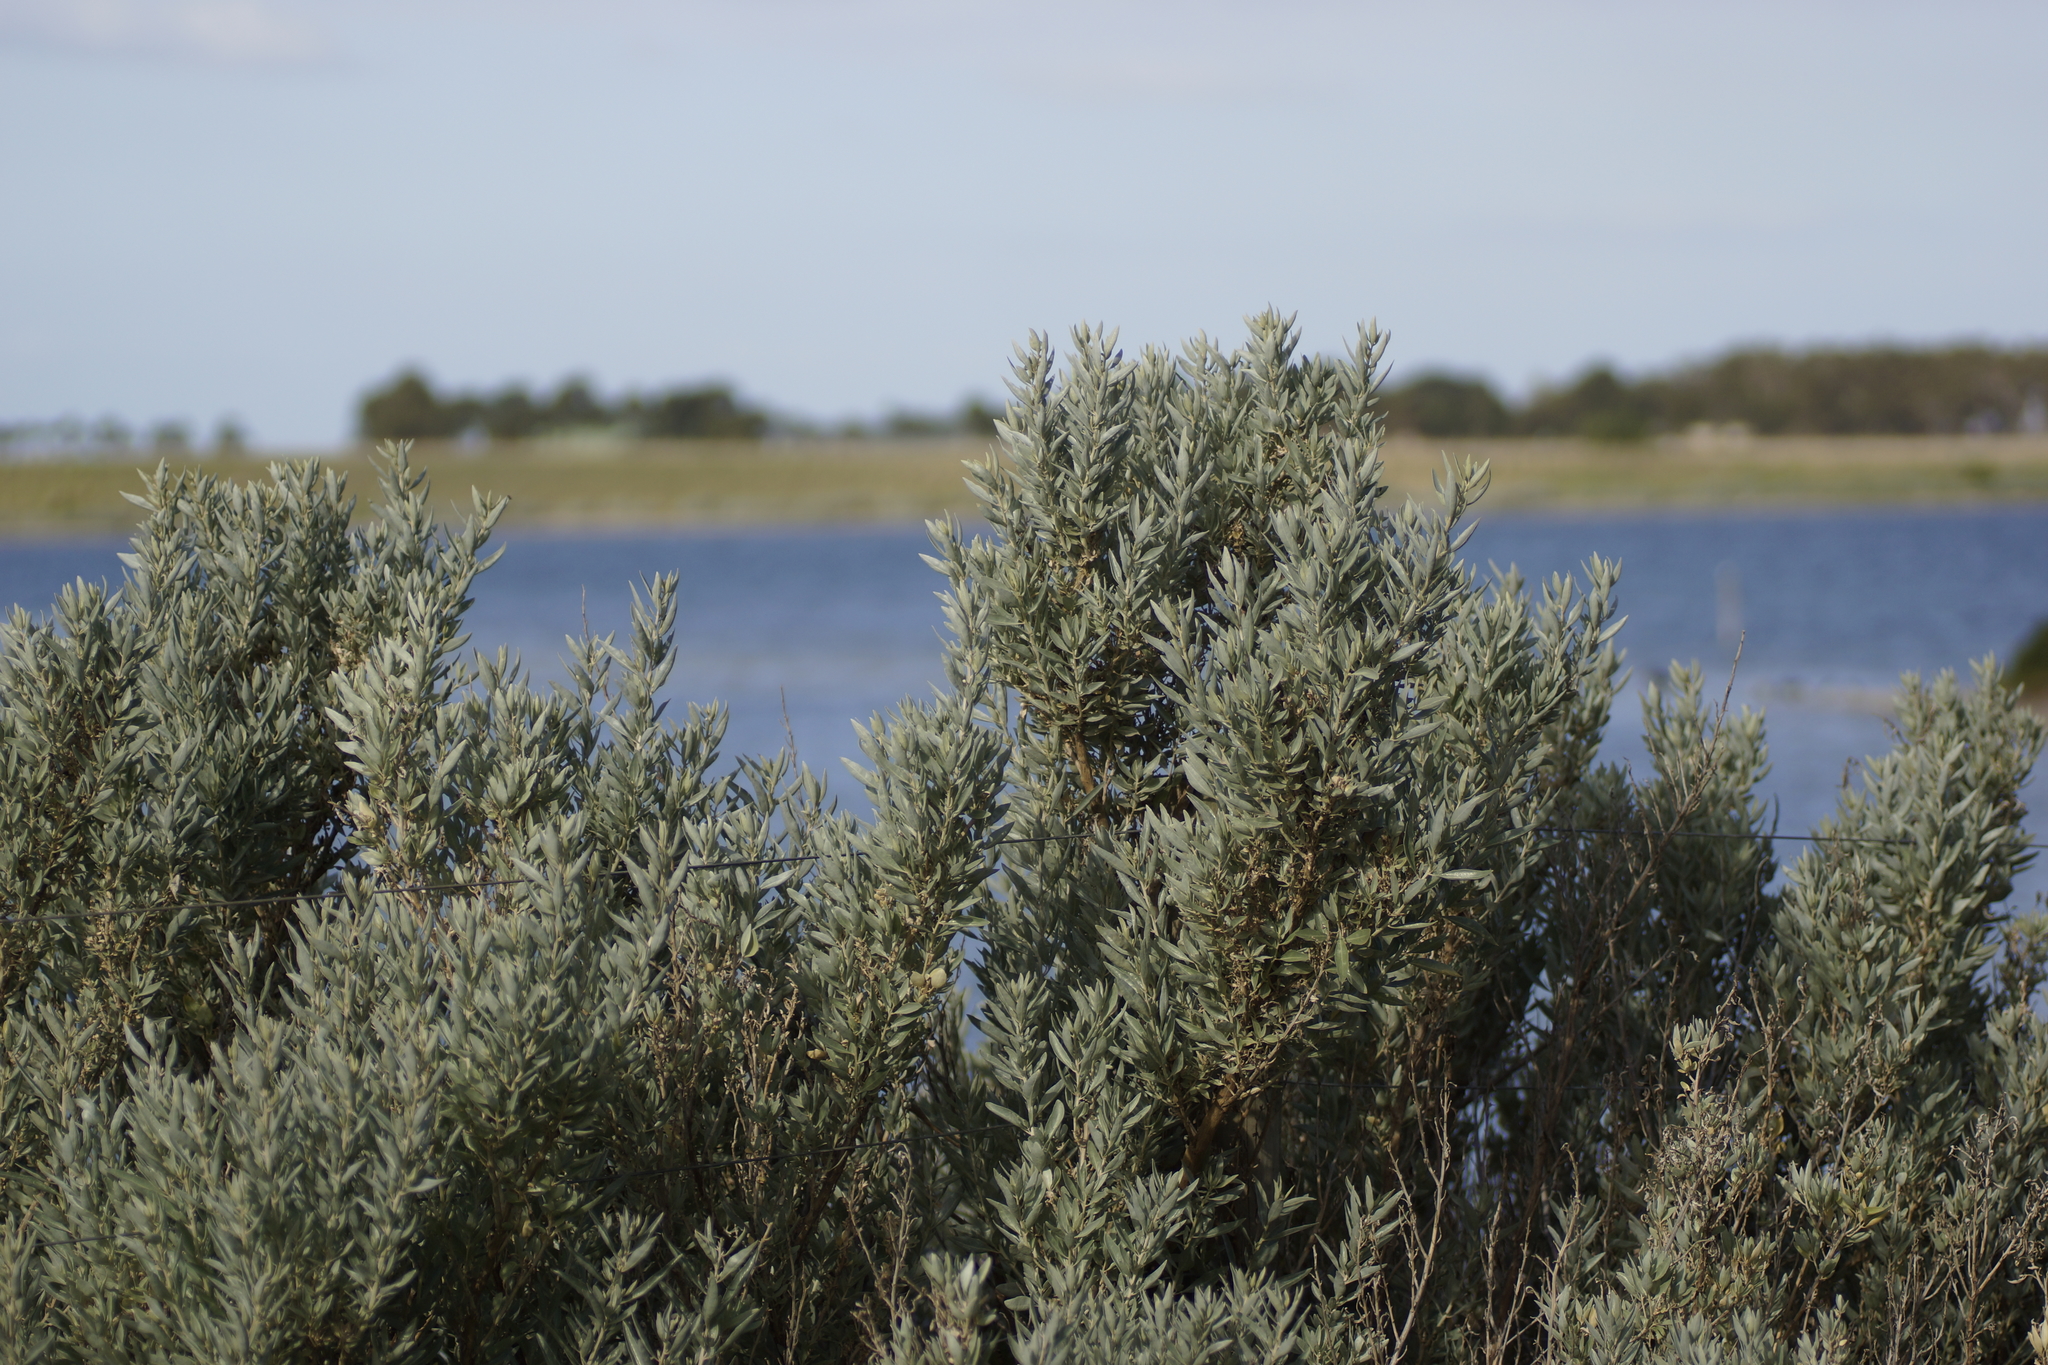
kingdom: Plantae
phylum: Tracheophyta
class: Magnoliopsida
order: Caryophyllales
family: Amaranthaceae
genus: Atriplex
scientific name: Atriplex cinerea
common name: Grey saltbush
